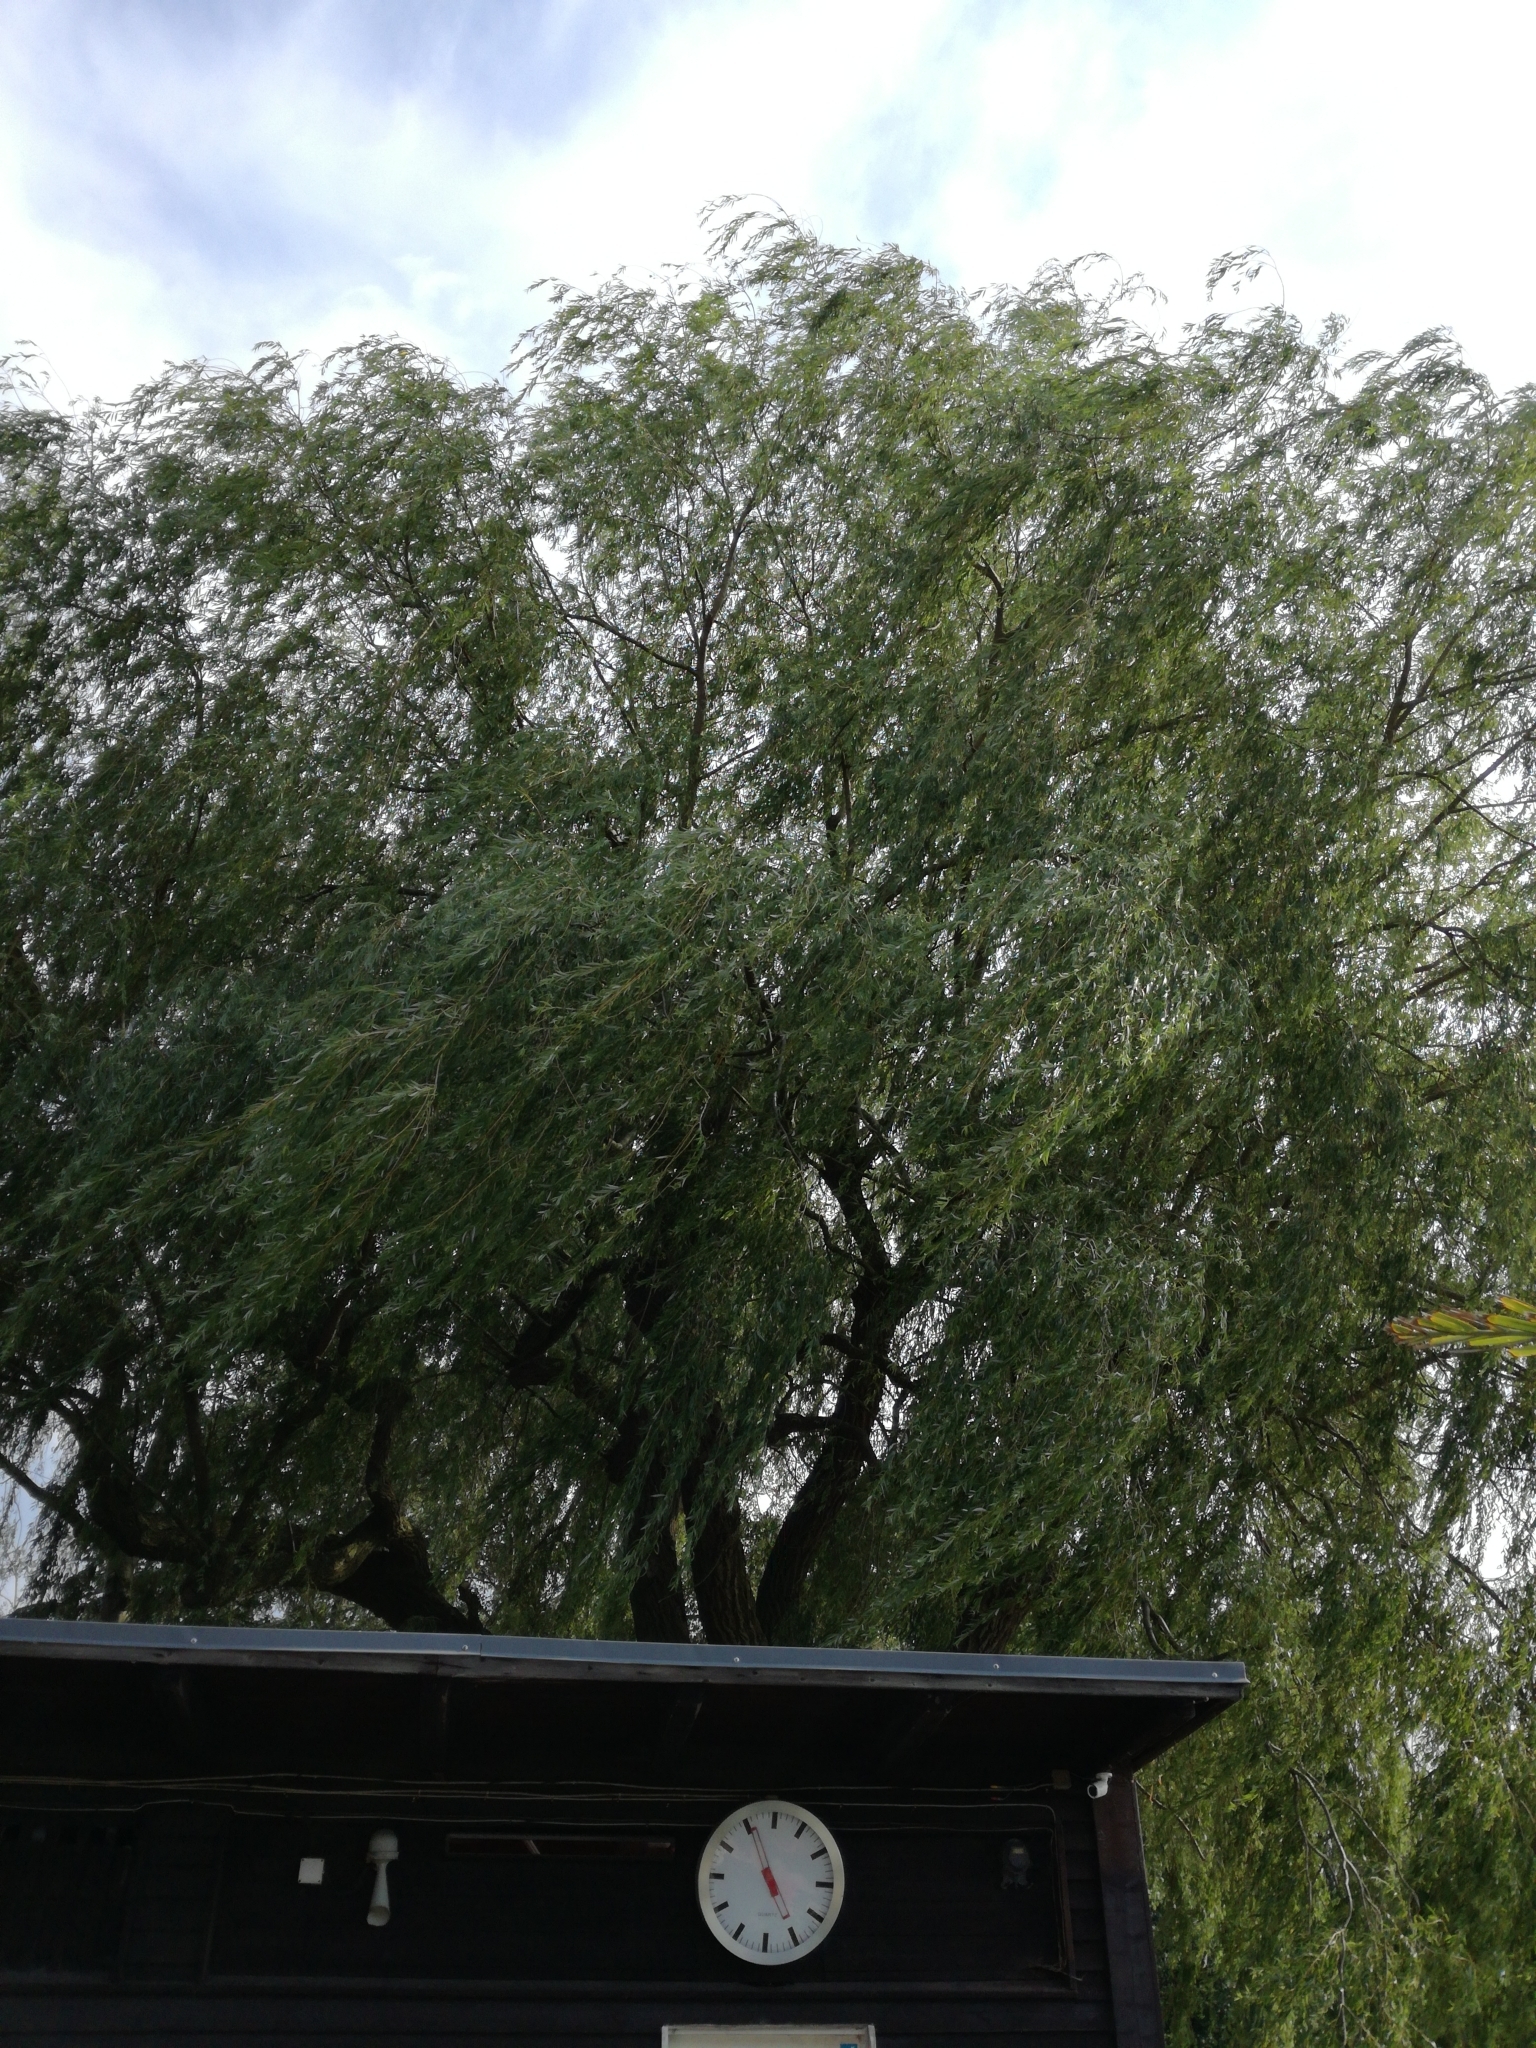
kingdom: Plantae
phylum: Tracheophyta
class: Magnoliopsida
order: Malpighiales
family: Salicaceae
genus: Salix
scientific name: Salix babylonica
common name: Weeping willow
